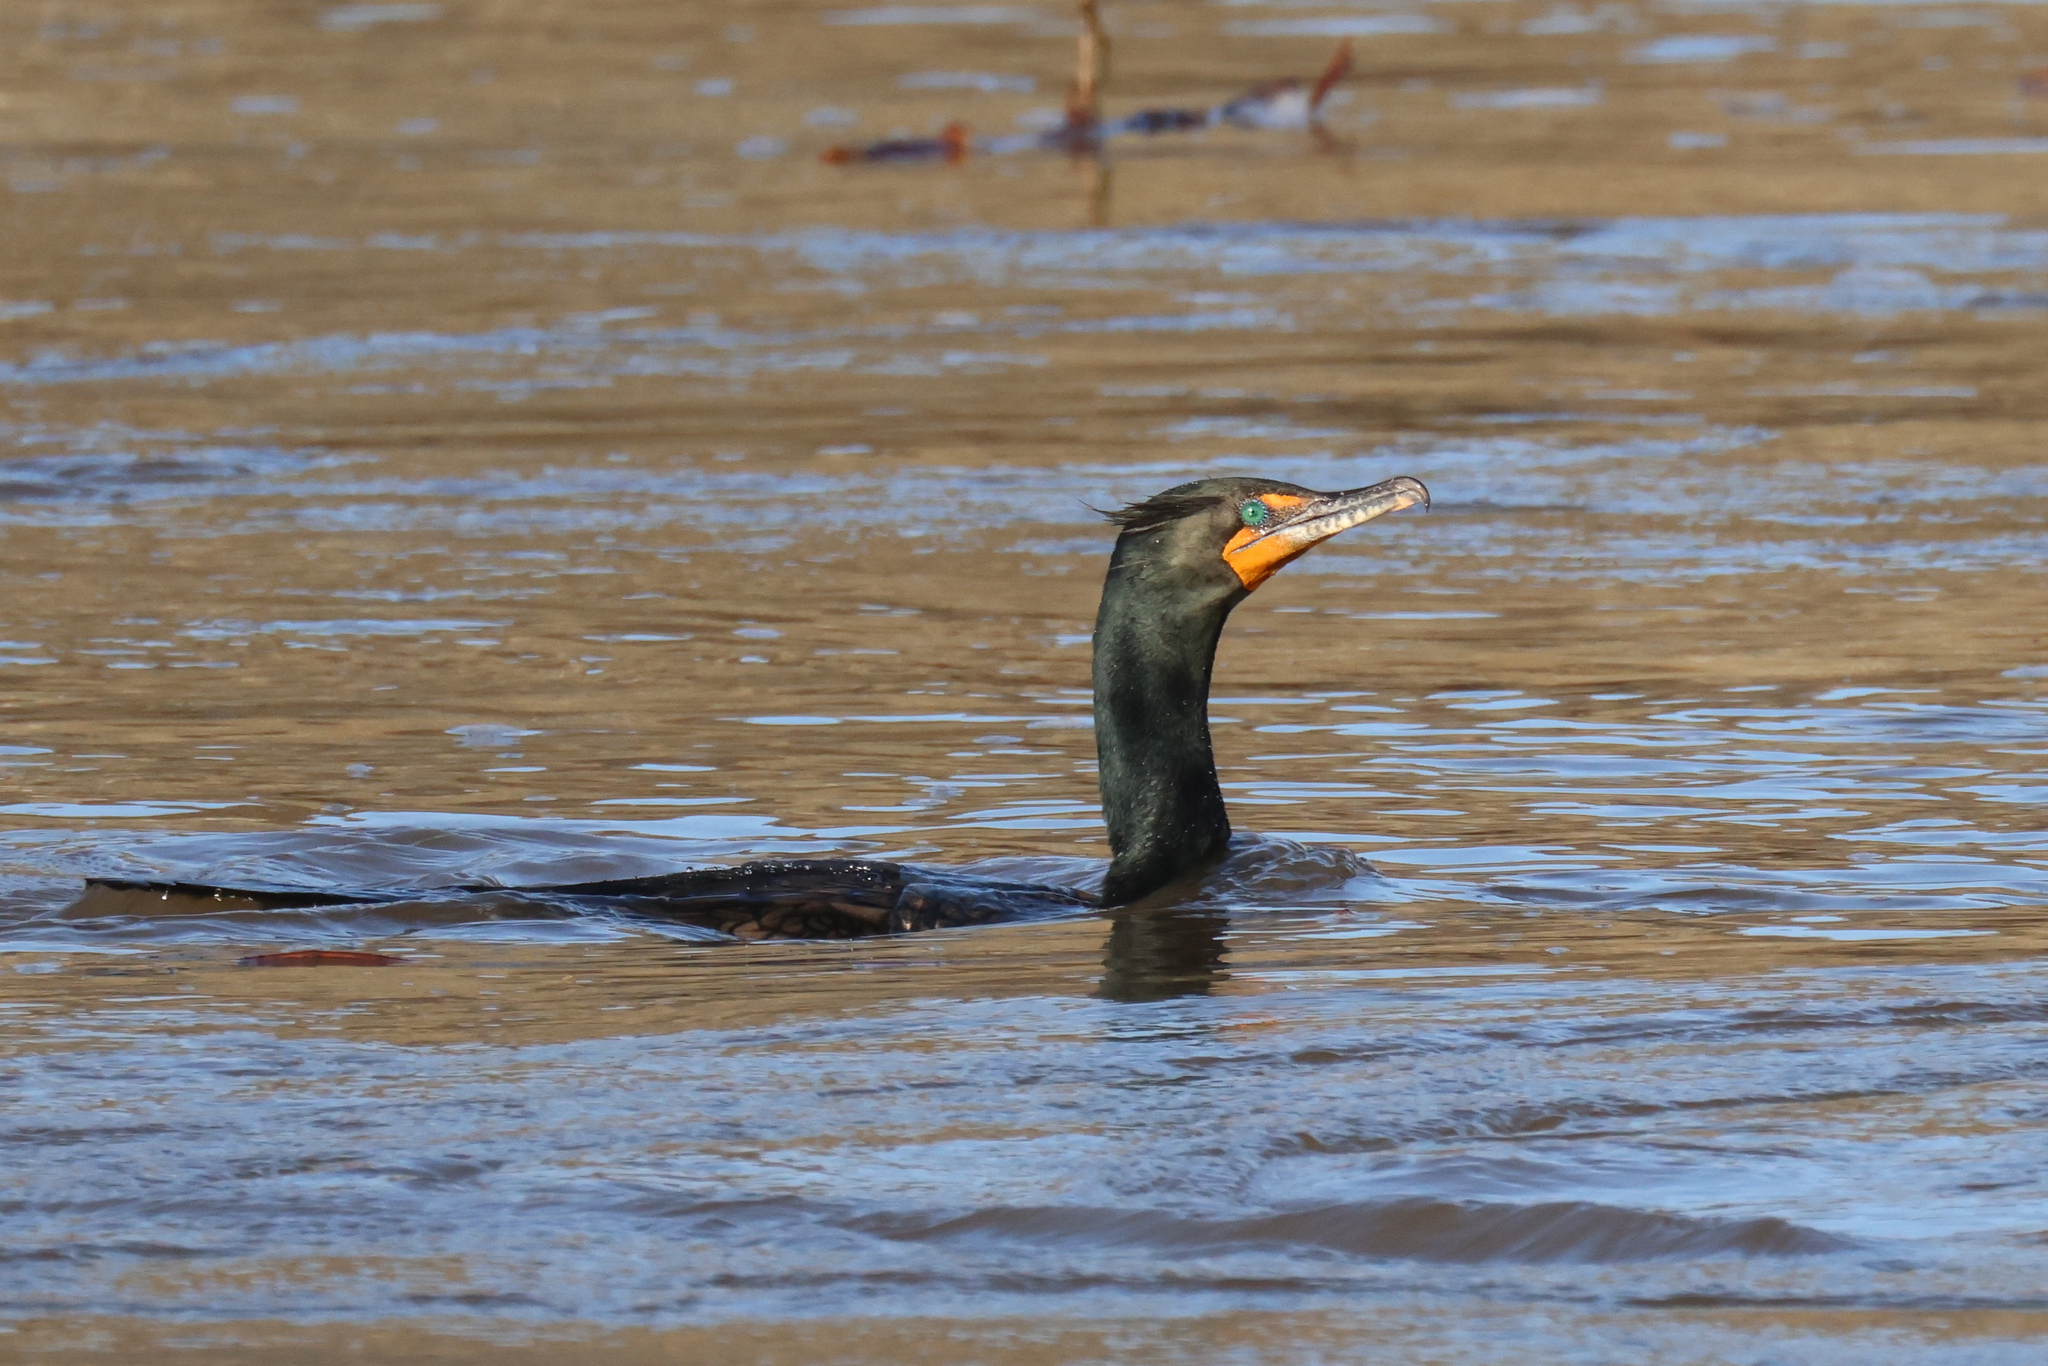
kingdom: Animalia
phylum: Chordata
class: Aves
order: Suliformes
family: Phalacrocoracidae
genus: Phalacrocorax
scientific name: Phalacrocorax auritus
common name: Double-crested cormorant
